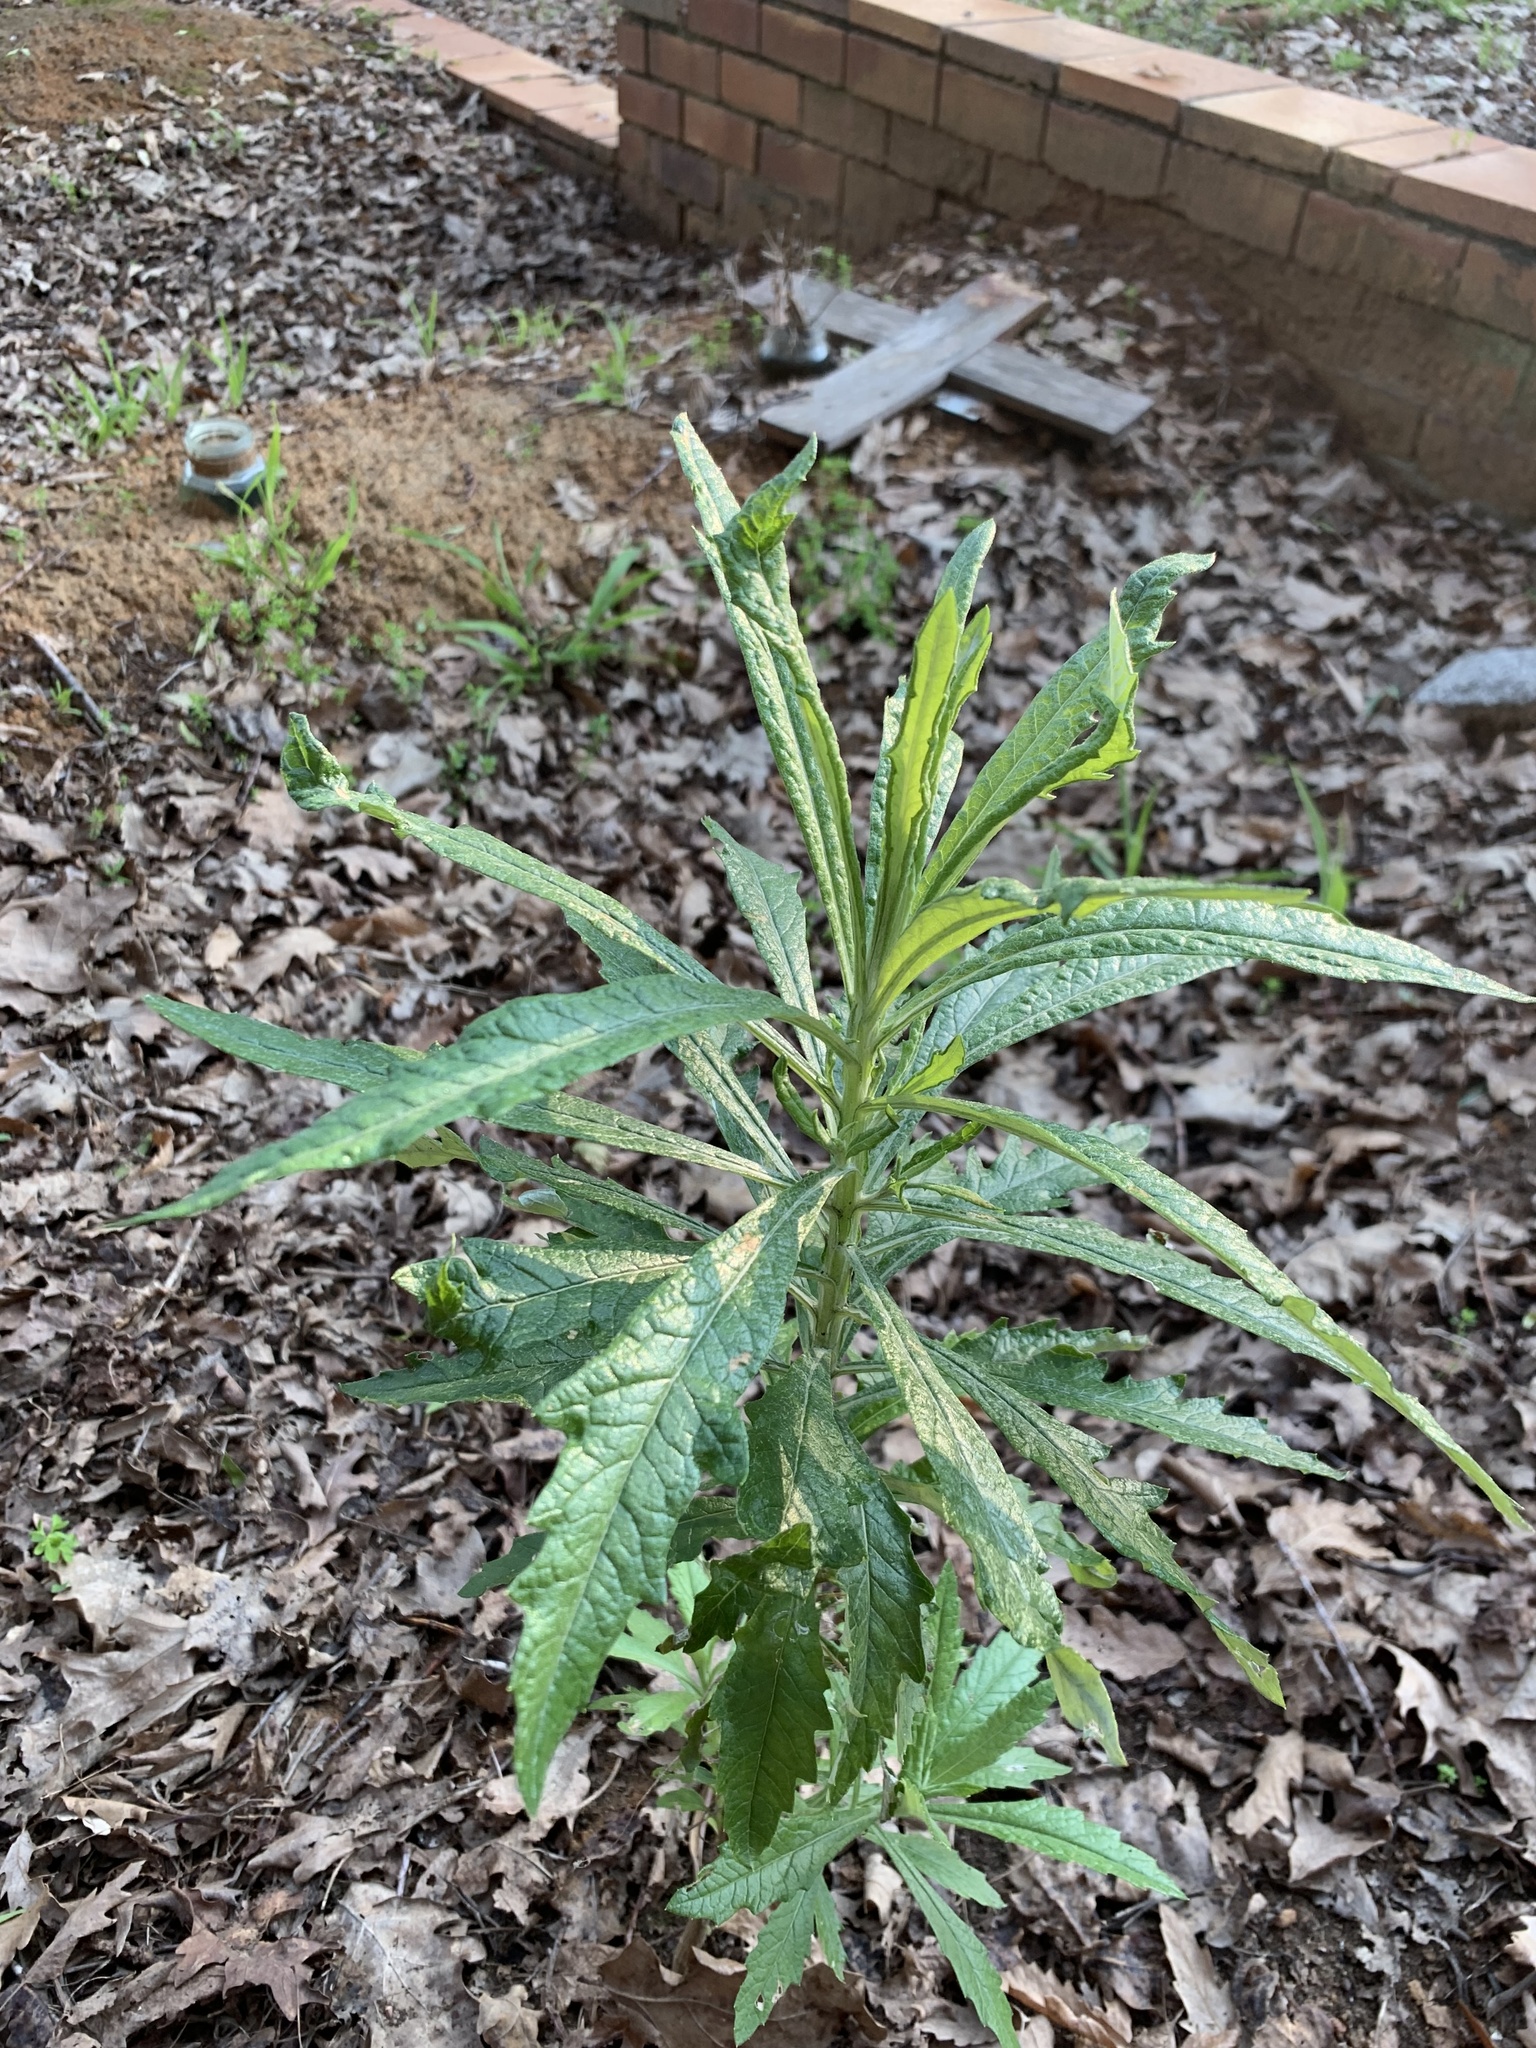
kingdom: Plantae
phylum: Tracheophyta
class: Magnoliopsida
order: Asterales
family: Asteraceae
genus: Senecio
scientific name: Senecio pterophorus
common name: Shoddy ragwort
